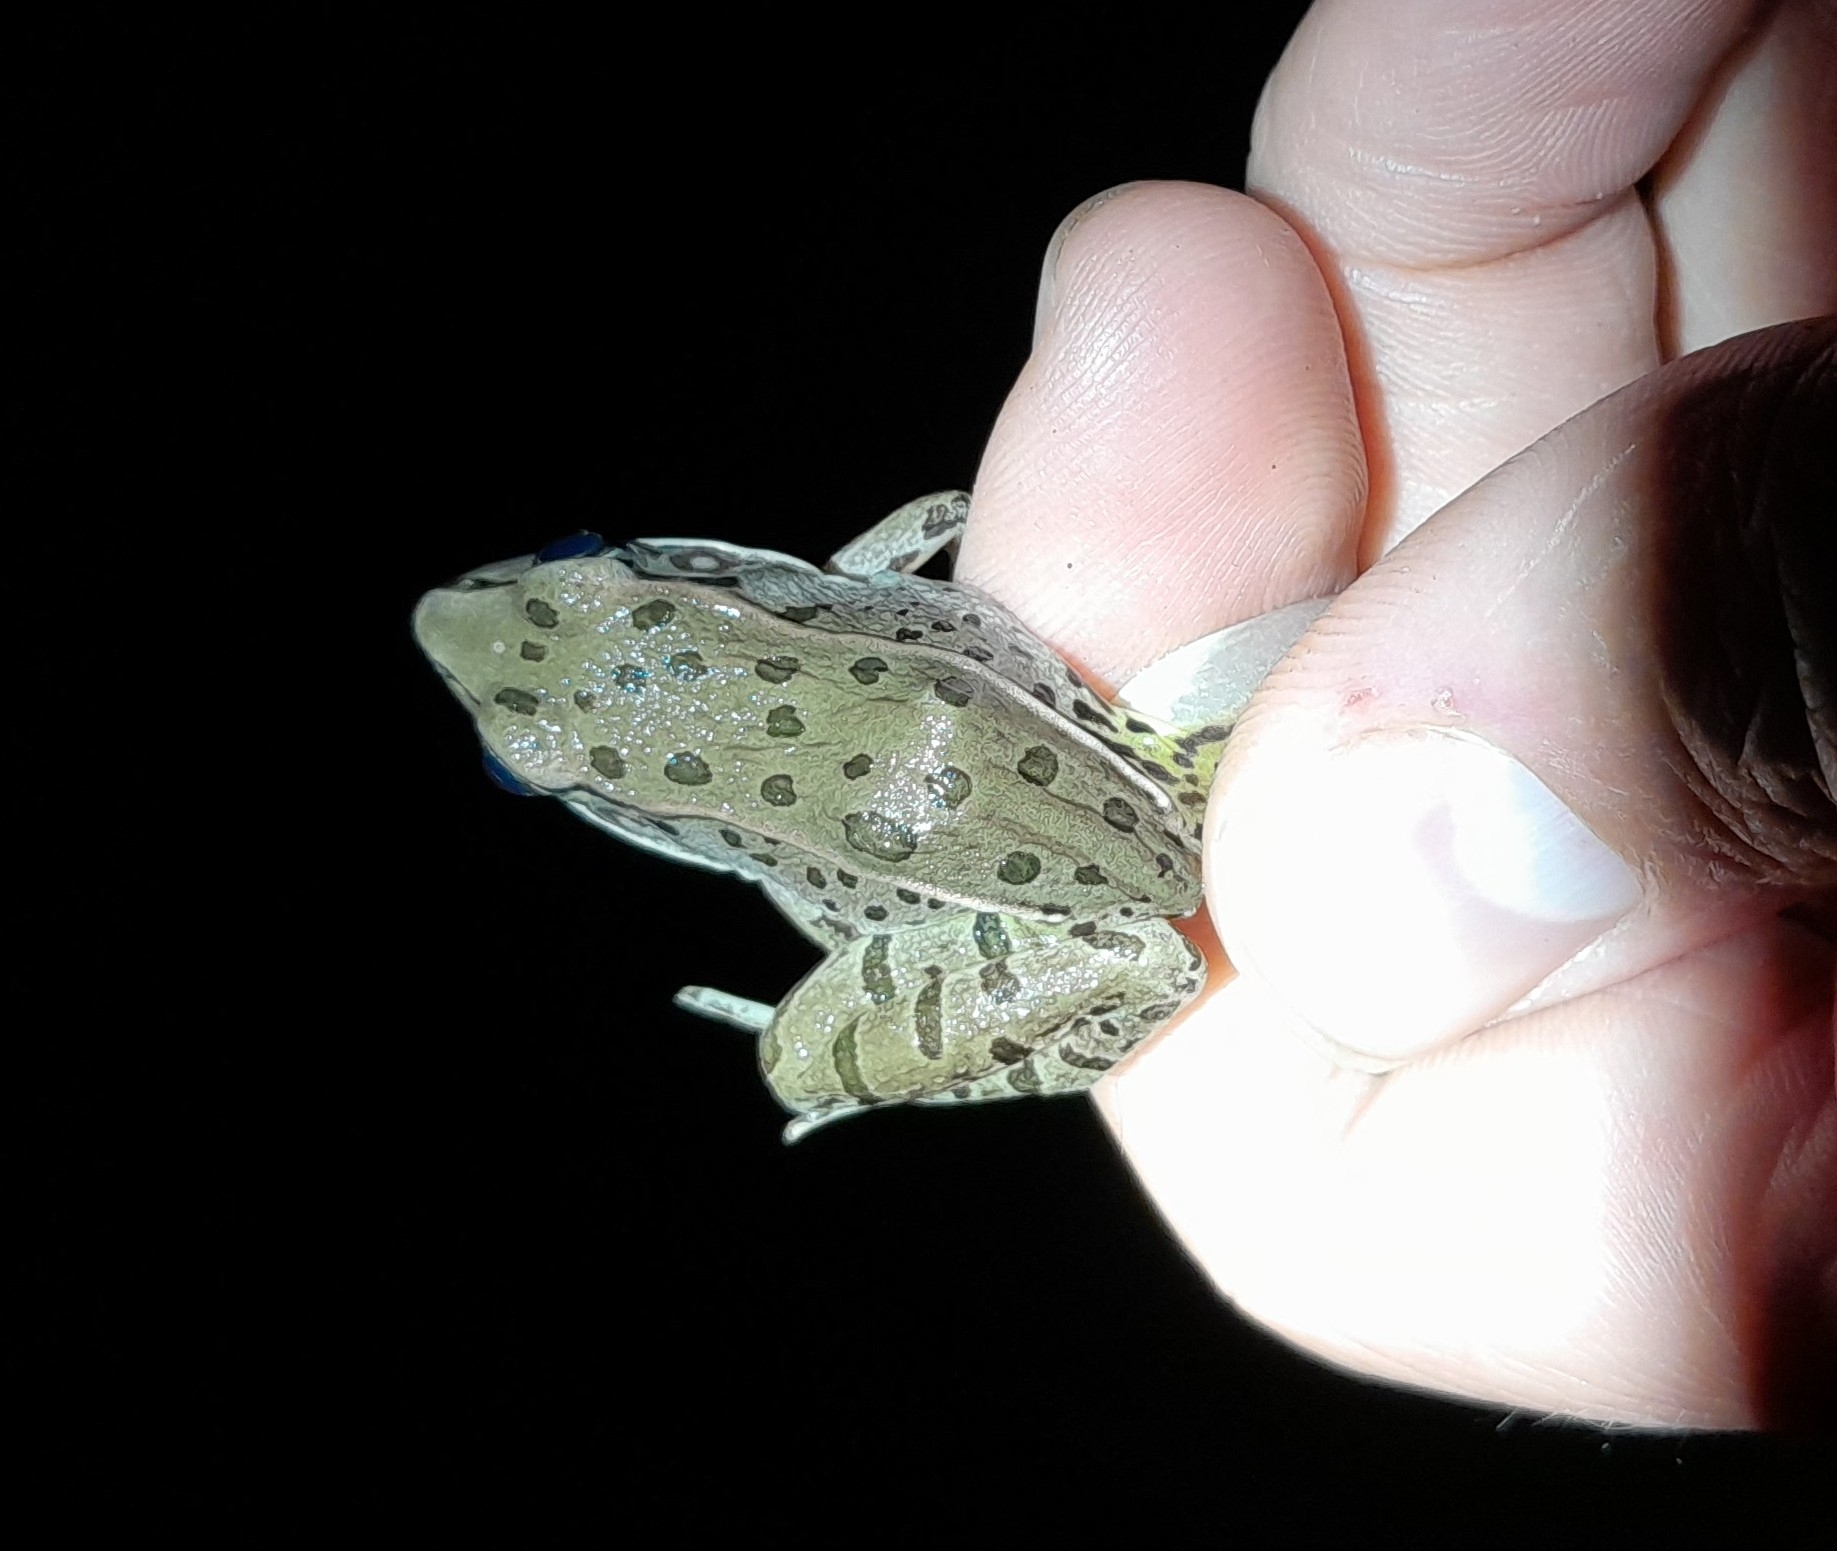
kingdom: Animalia
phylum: Chordata
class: Amphibia
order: Anura
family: Ranidae
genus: Lithobates
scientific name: Lithobates sphenocephalus
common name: Southern leopard frog
